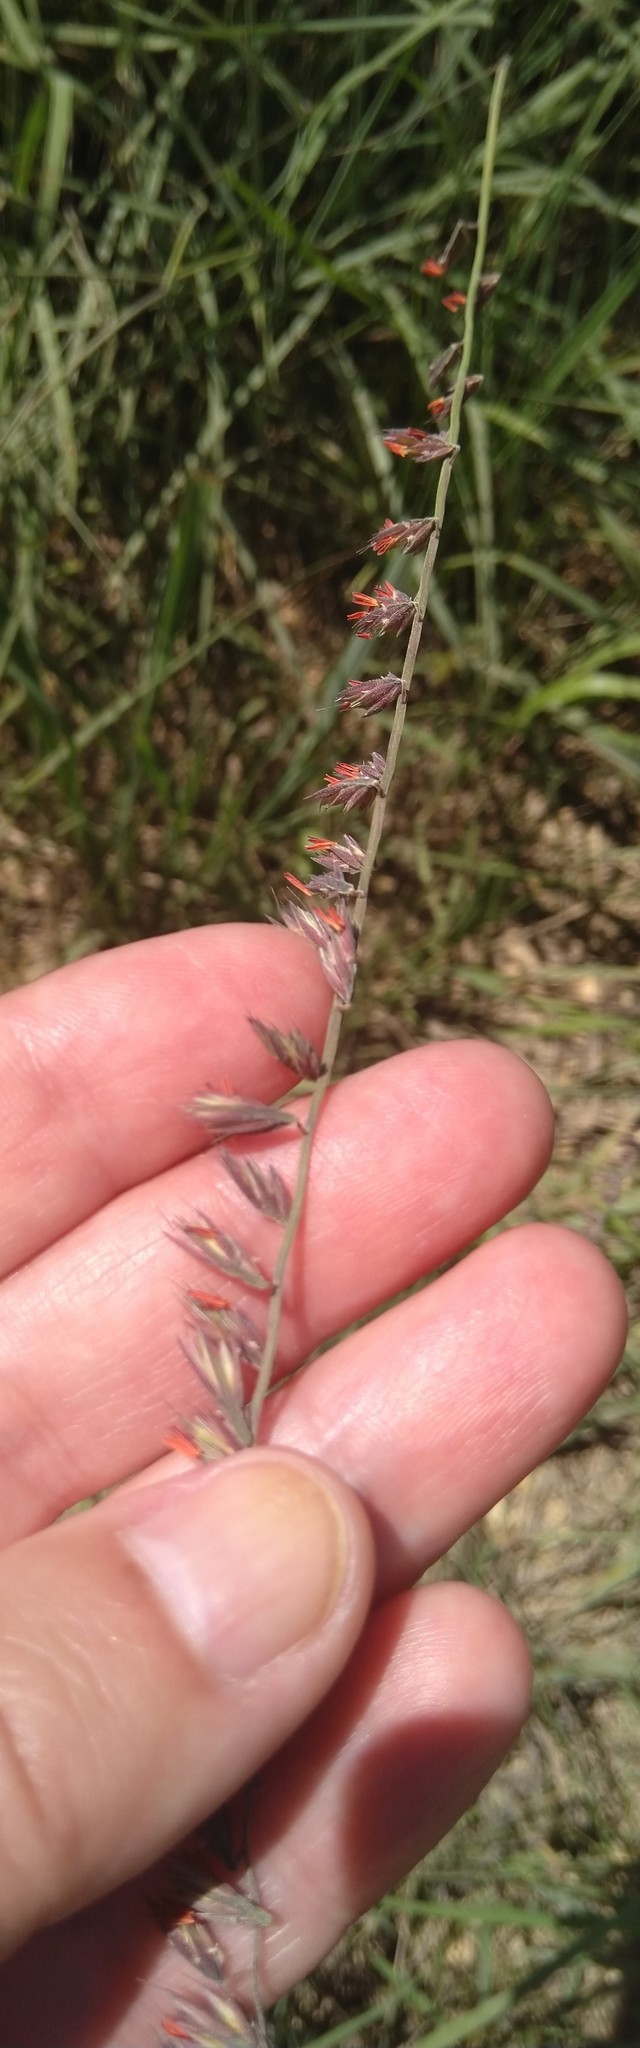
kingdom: Plantae
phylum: Tracheophyta
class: Liliopsida
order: Poales
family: Poaceae
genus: Bouteloua
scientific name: Bouteloua curtipendula
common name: Side-oats grama
